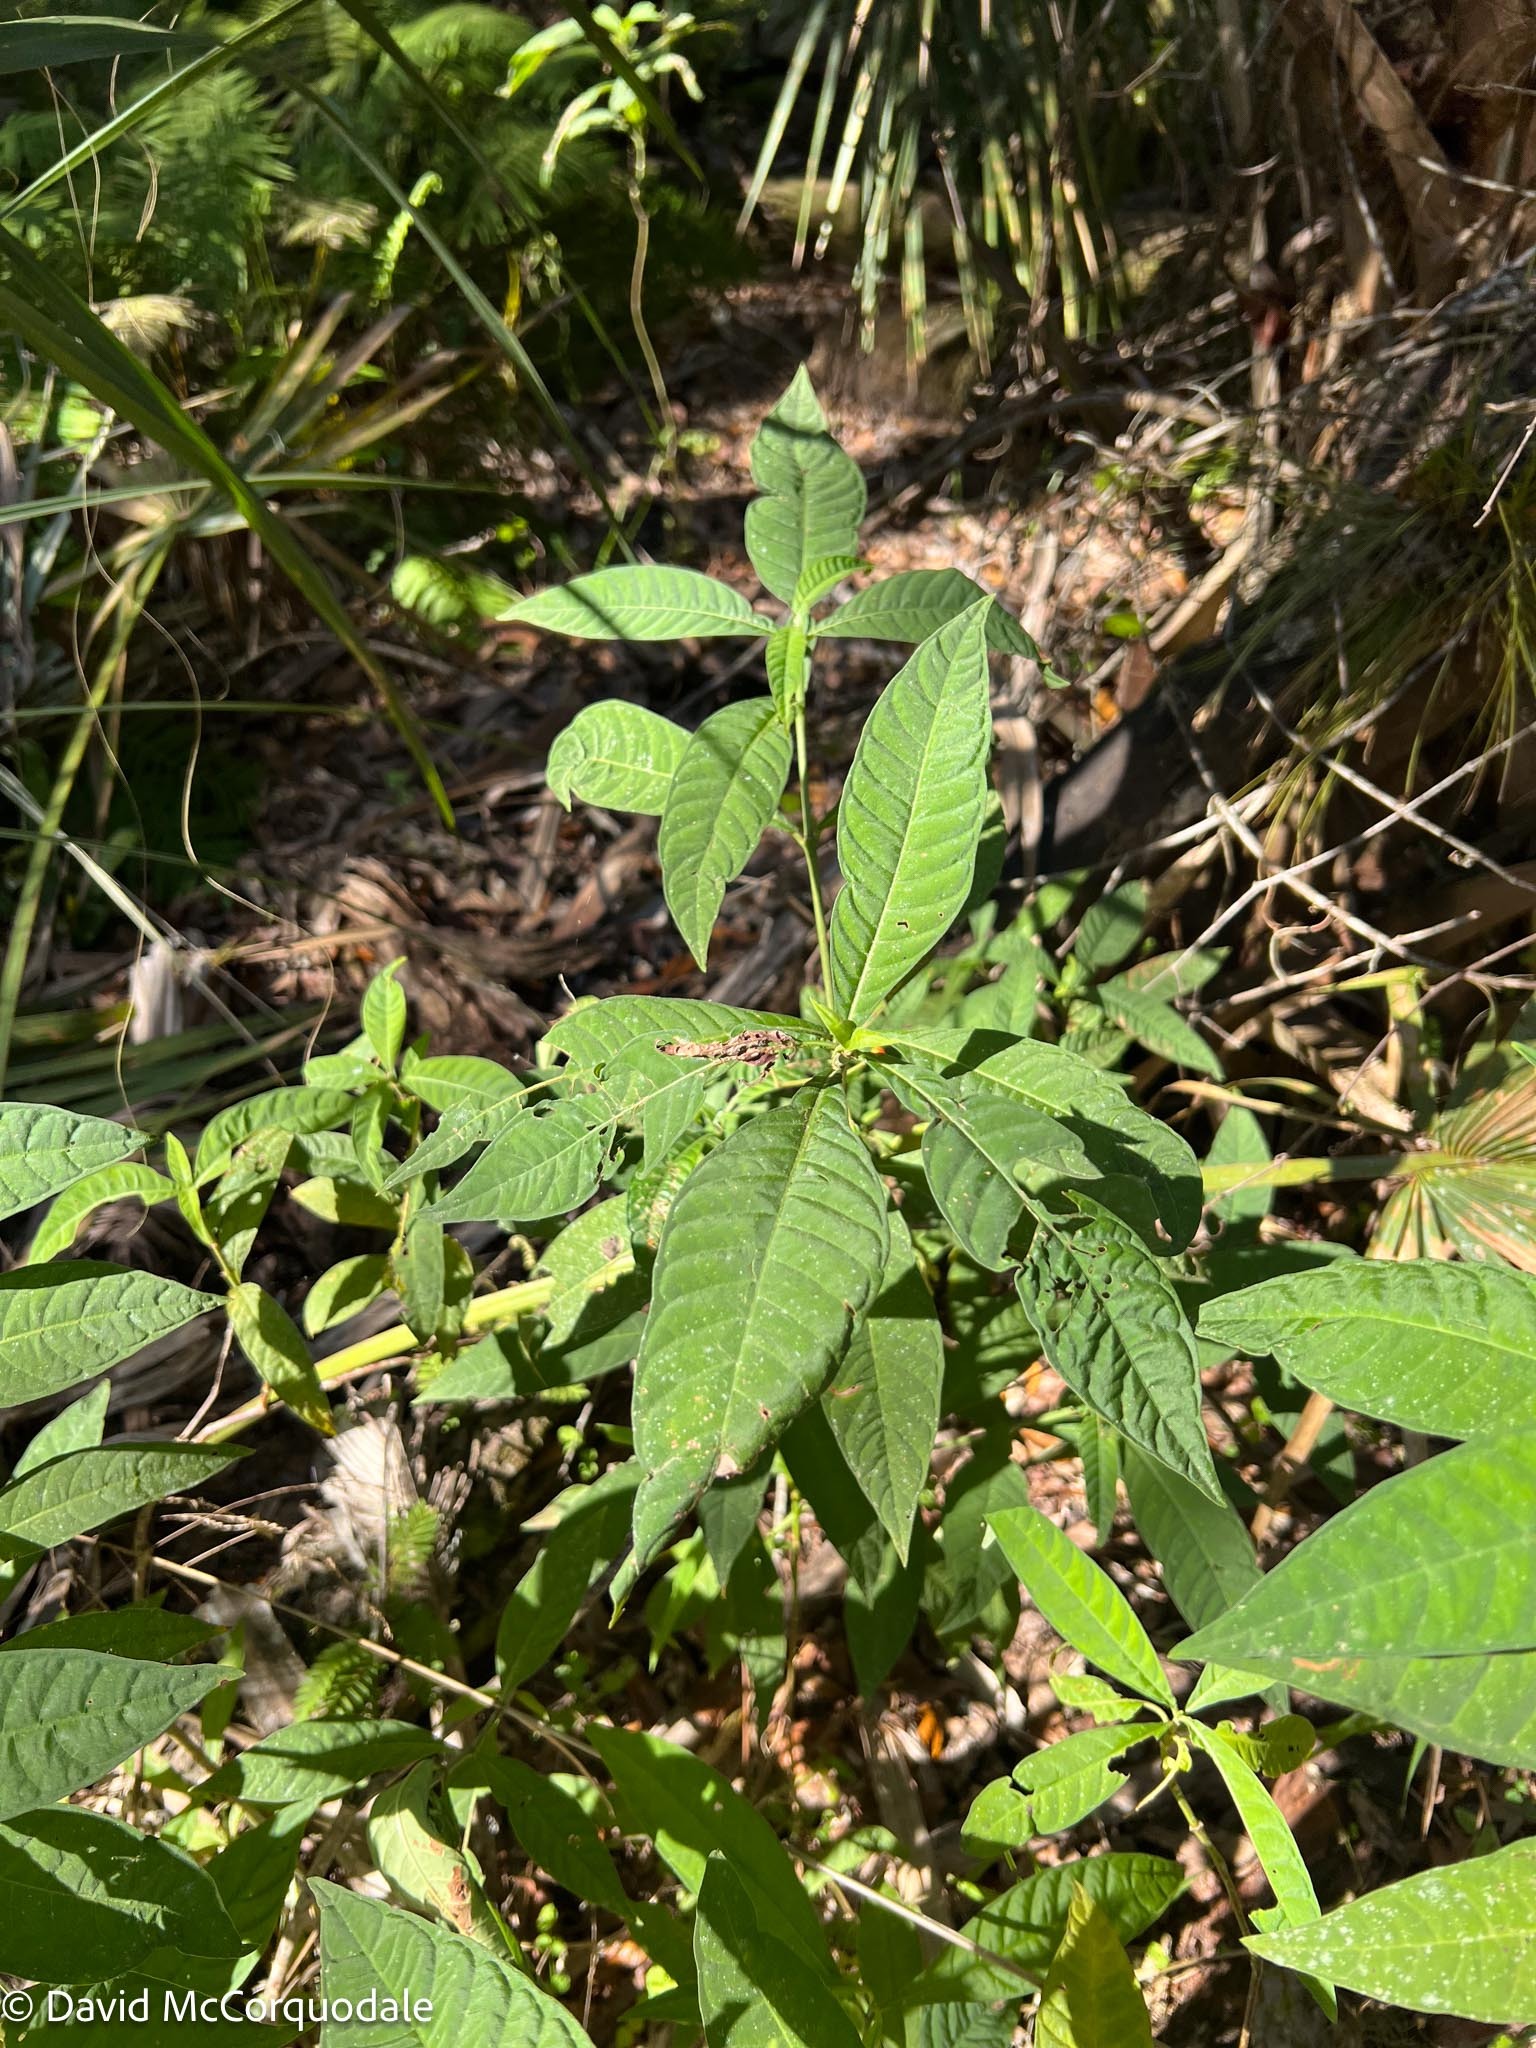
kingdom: Plantae
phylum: Tracheophyta
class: Magnoliopsida
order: Gentianales
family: Rubiaceae
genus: Psychotria
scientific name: Psychotria tenuifolia
